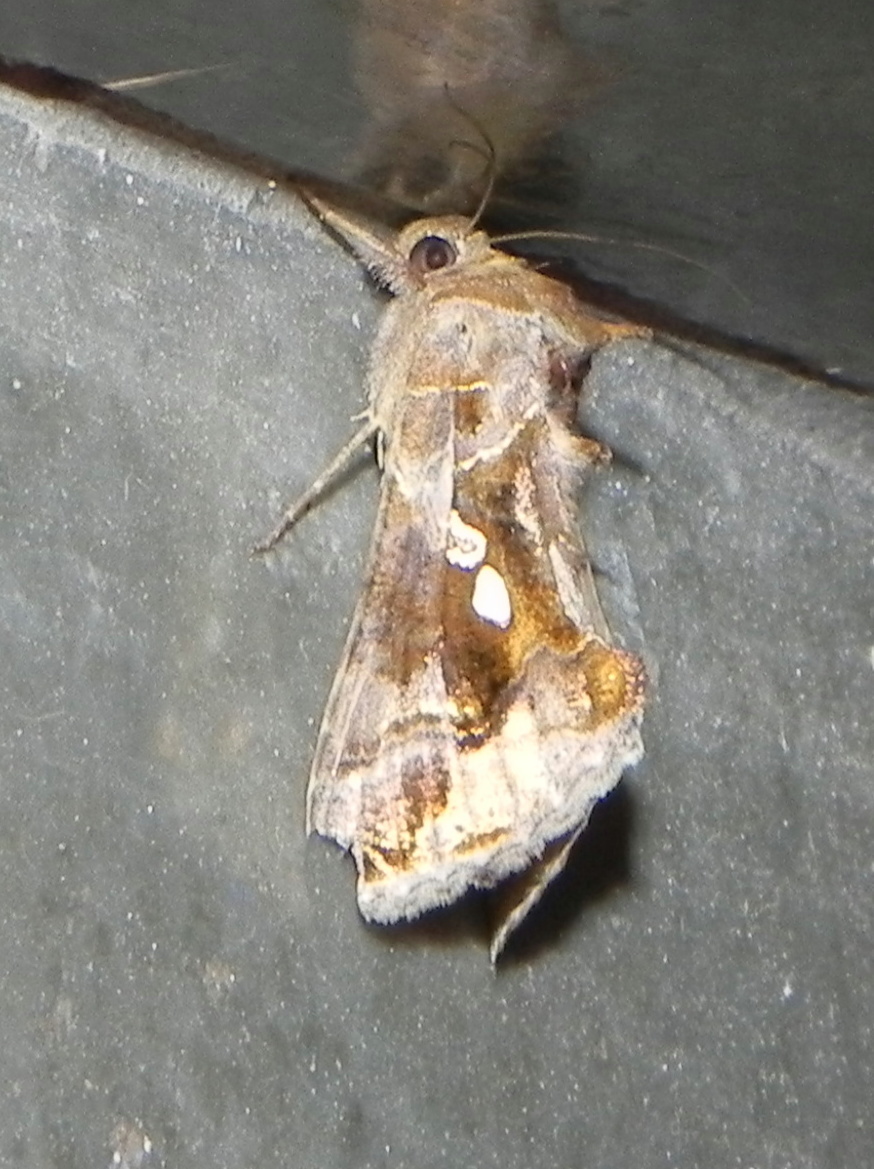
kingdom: Animalia
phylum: Arthropoda
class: Insecta
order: Lepidoptera
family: Noctuidae
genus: Chrysodeixis
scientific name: Chrysodeixis eriosoma
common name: Green garden looper
